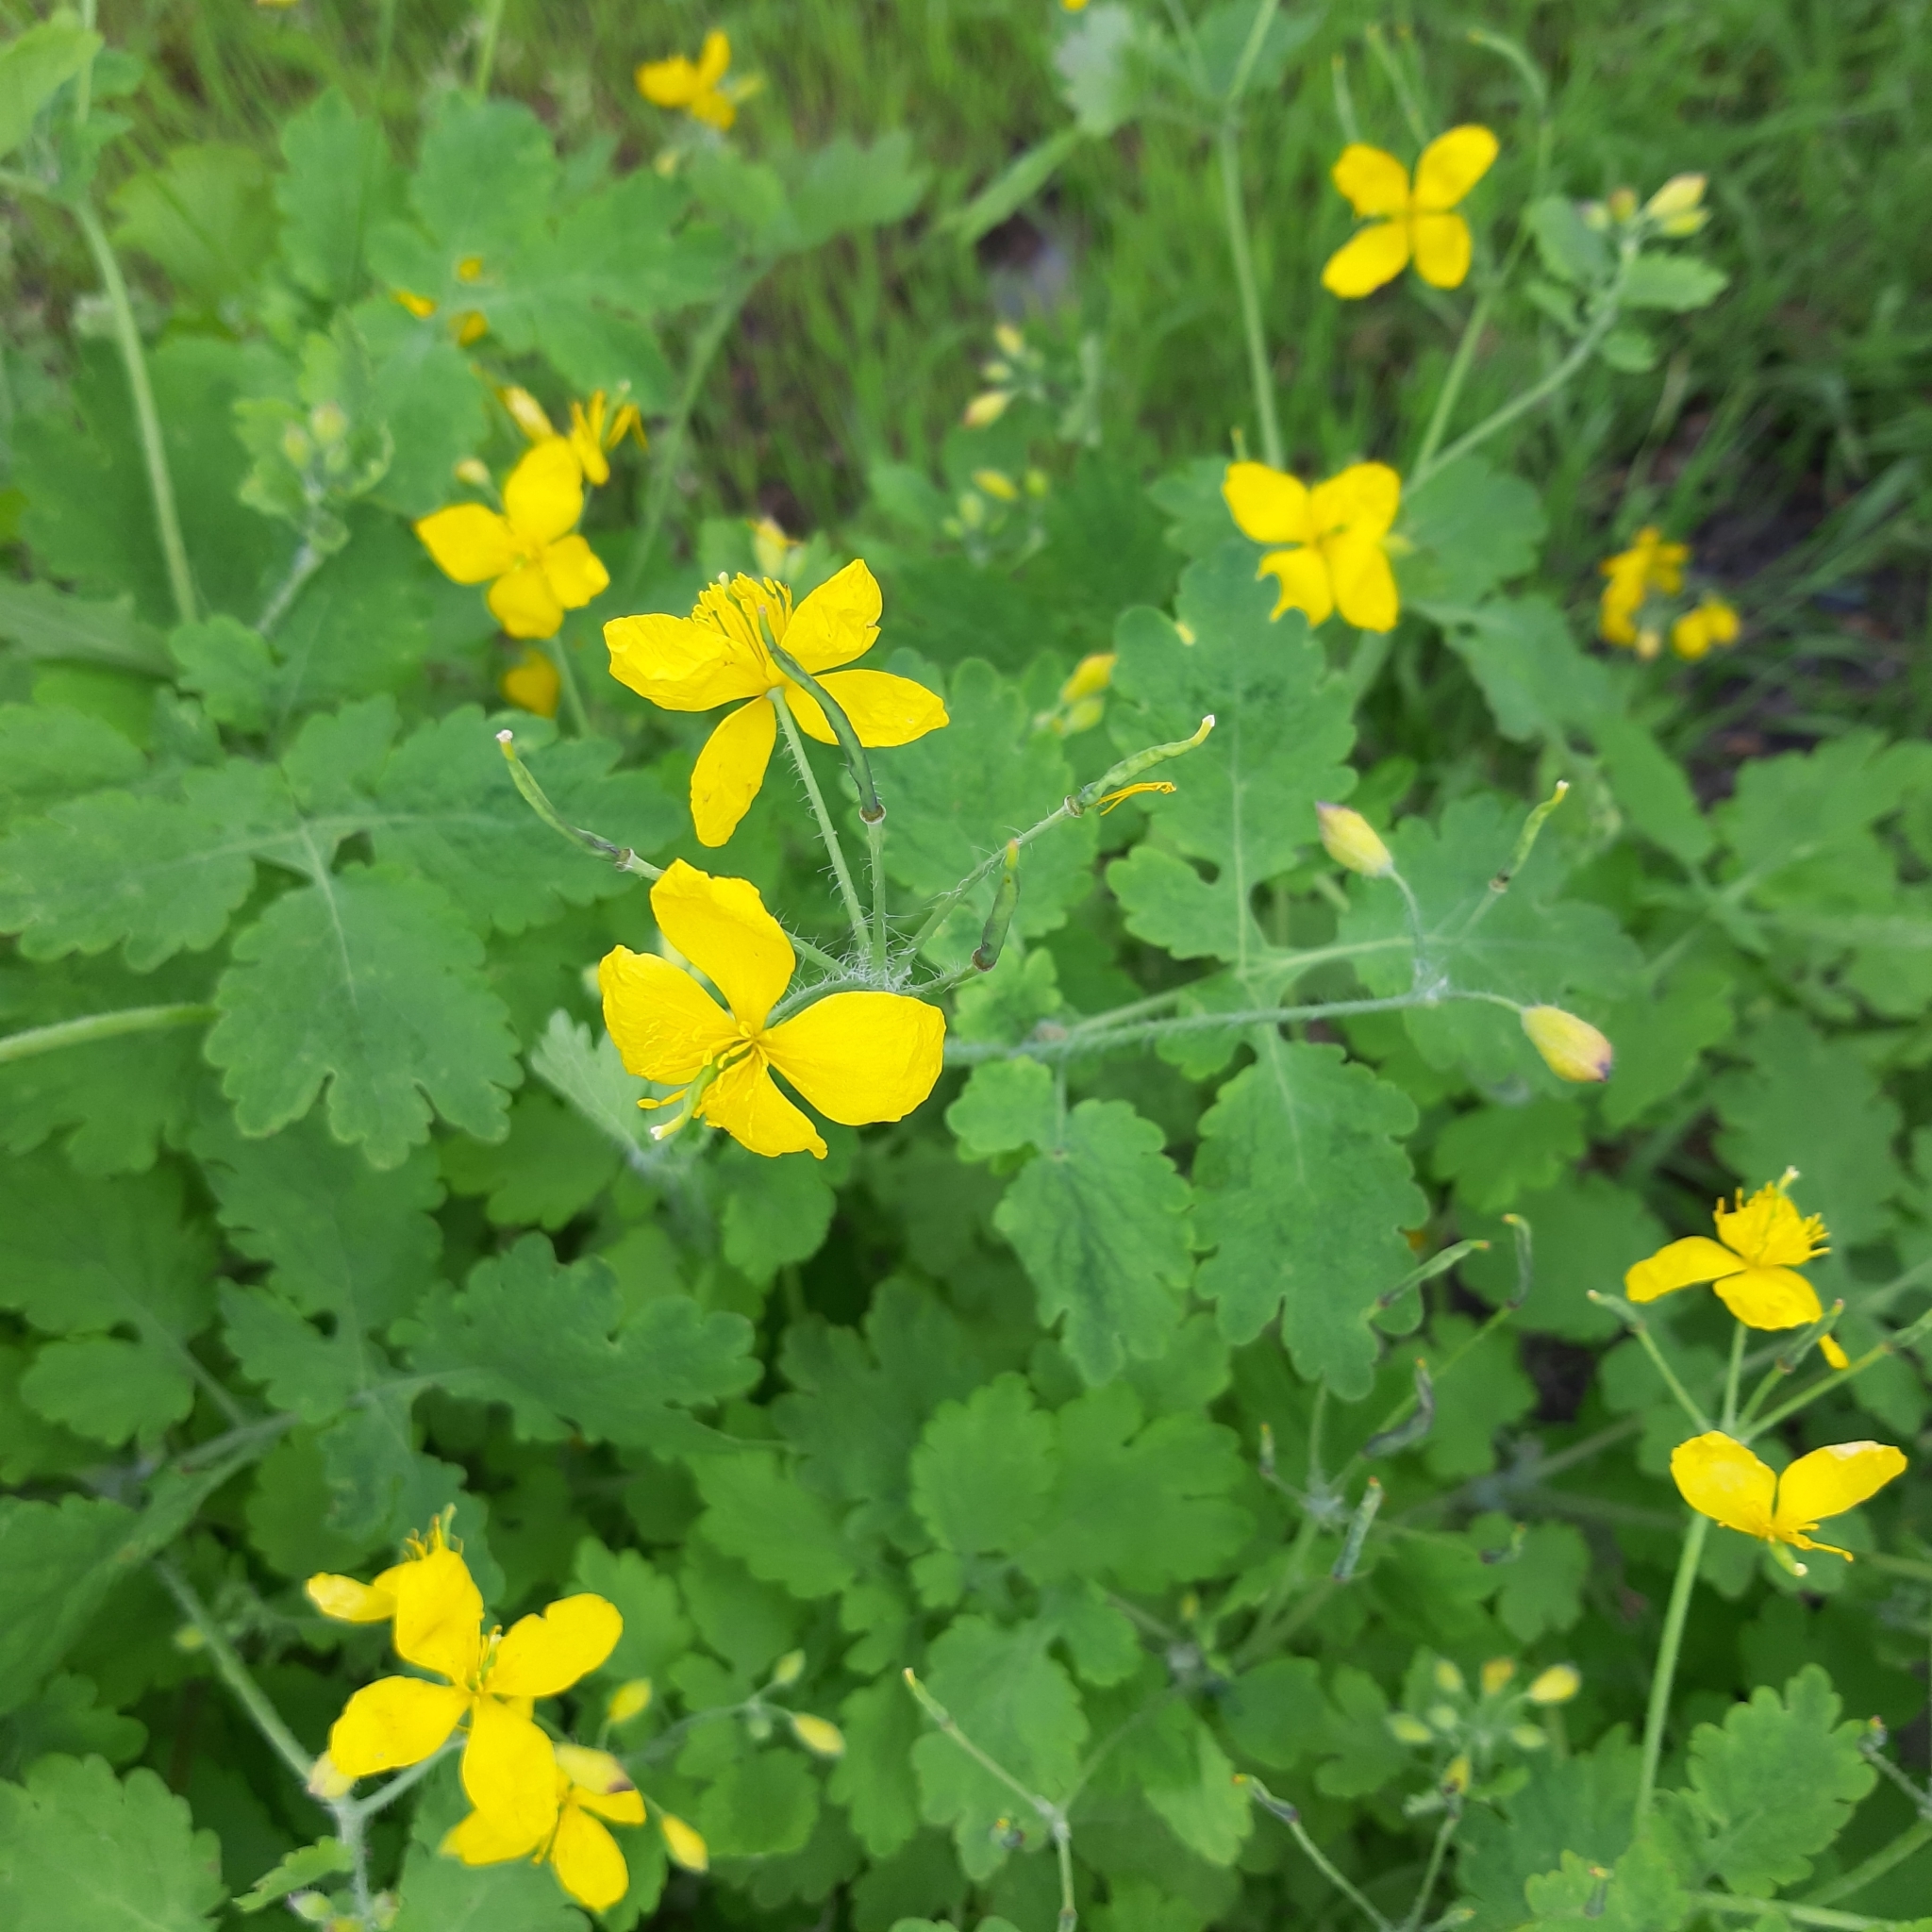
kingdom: Plantae
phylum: Tracheophyta
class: Magnoliopsida
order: Ranunculales
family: Papaveraceae
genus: Chelidonium
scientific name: Chelidonium majus
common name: Greater celandine
